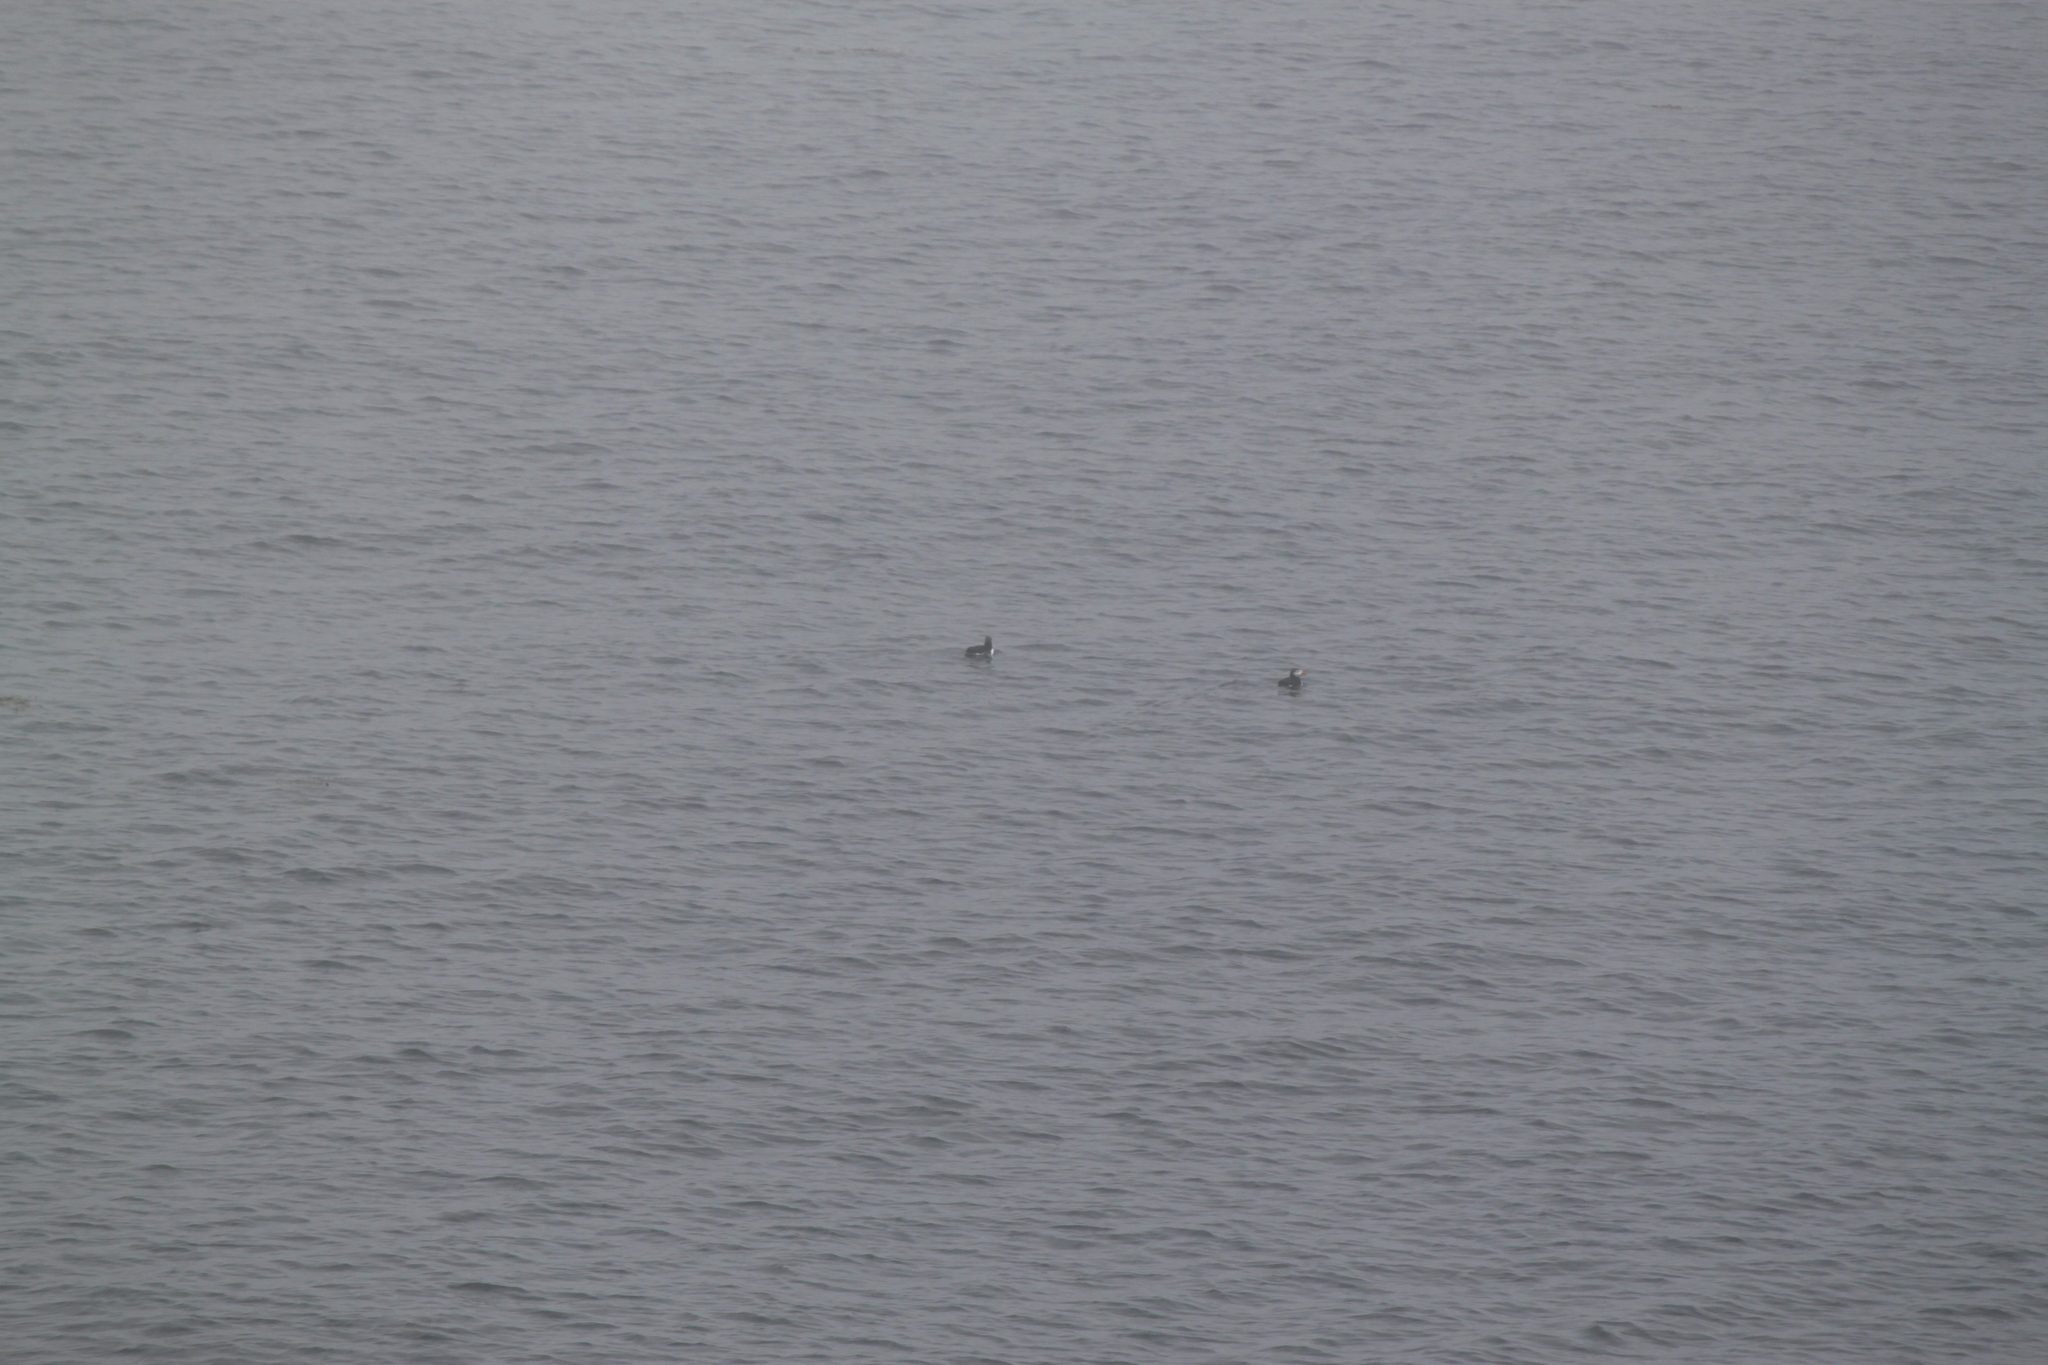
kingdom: Animalia
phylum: Chordata
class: Aves
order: Charadriiformes
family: Alcidae
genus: Fratercula
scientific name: Fratercula arctica
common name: Atlantic puffin
